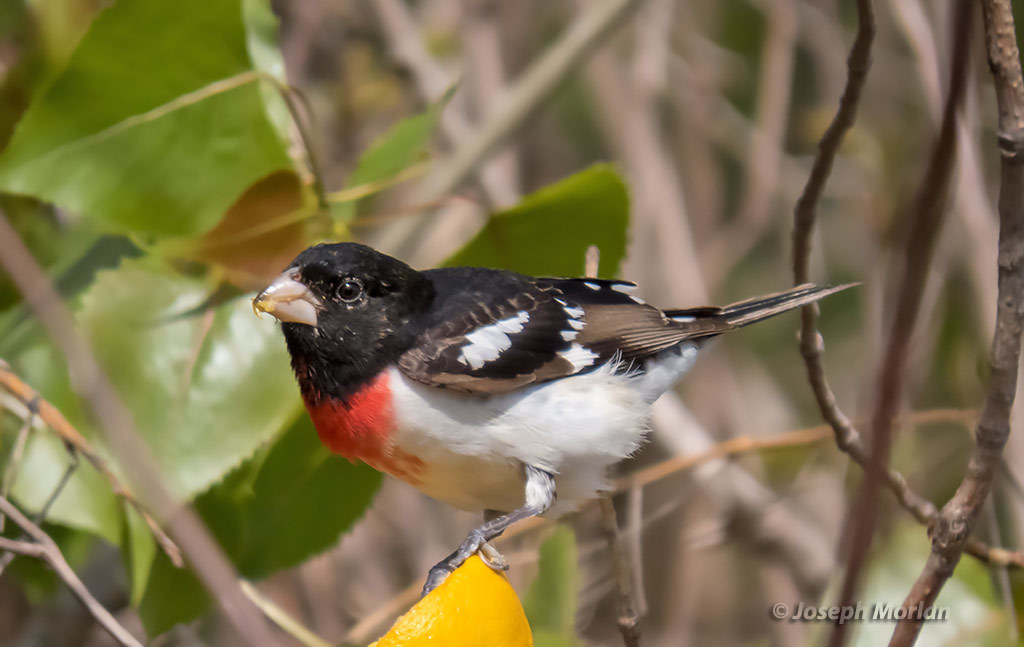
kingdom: Animalia
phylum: Chordata
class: Aves
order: Passeriformes
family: Cardinalidae
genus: Pheucticus
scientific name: Pheucticus ludovicianus
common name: Rose-breasted grosbeak
